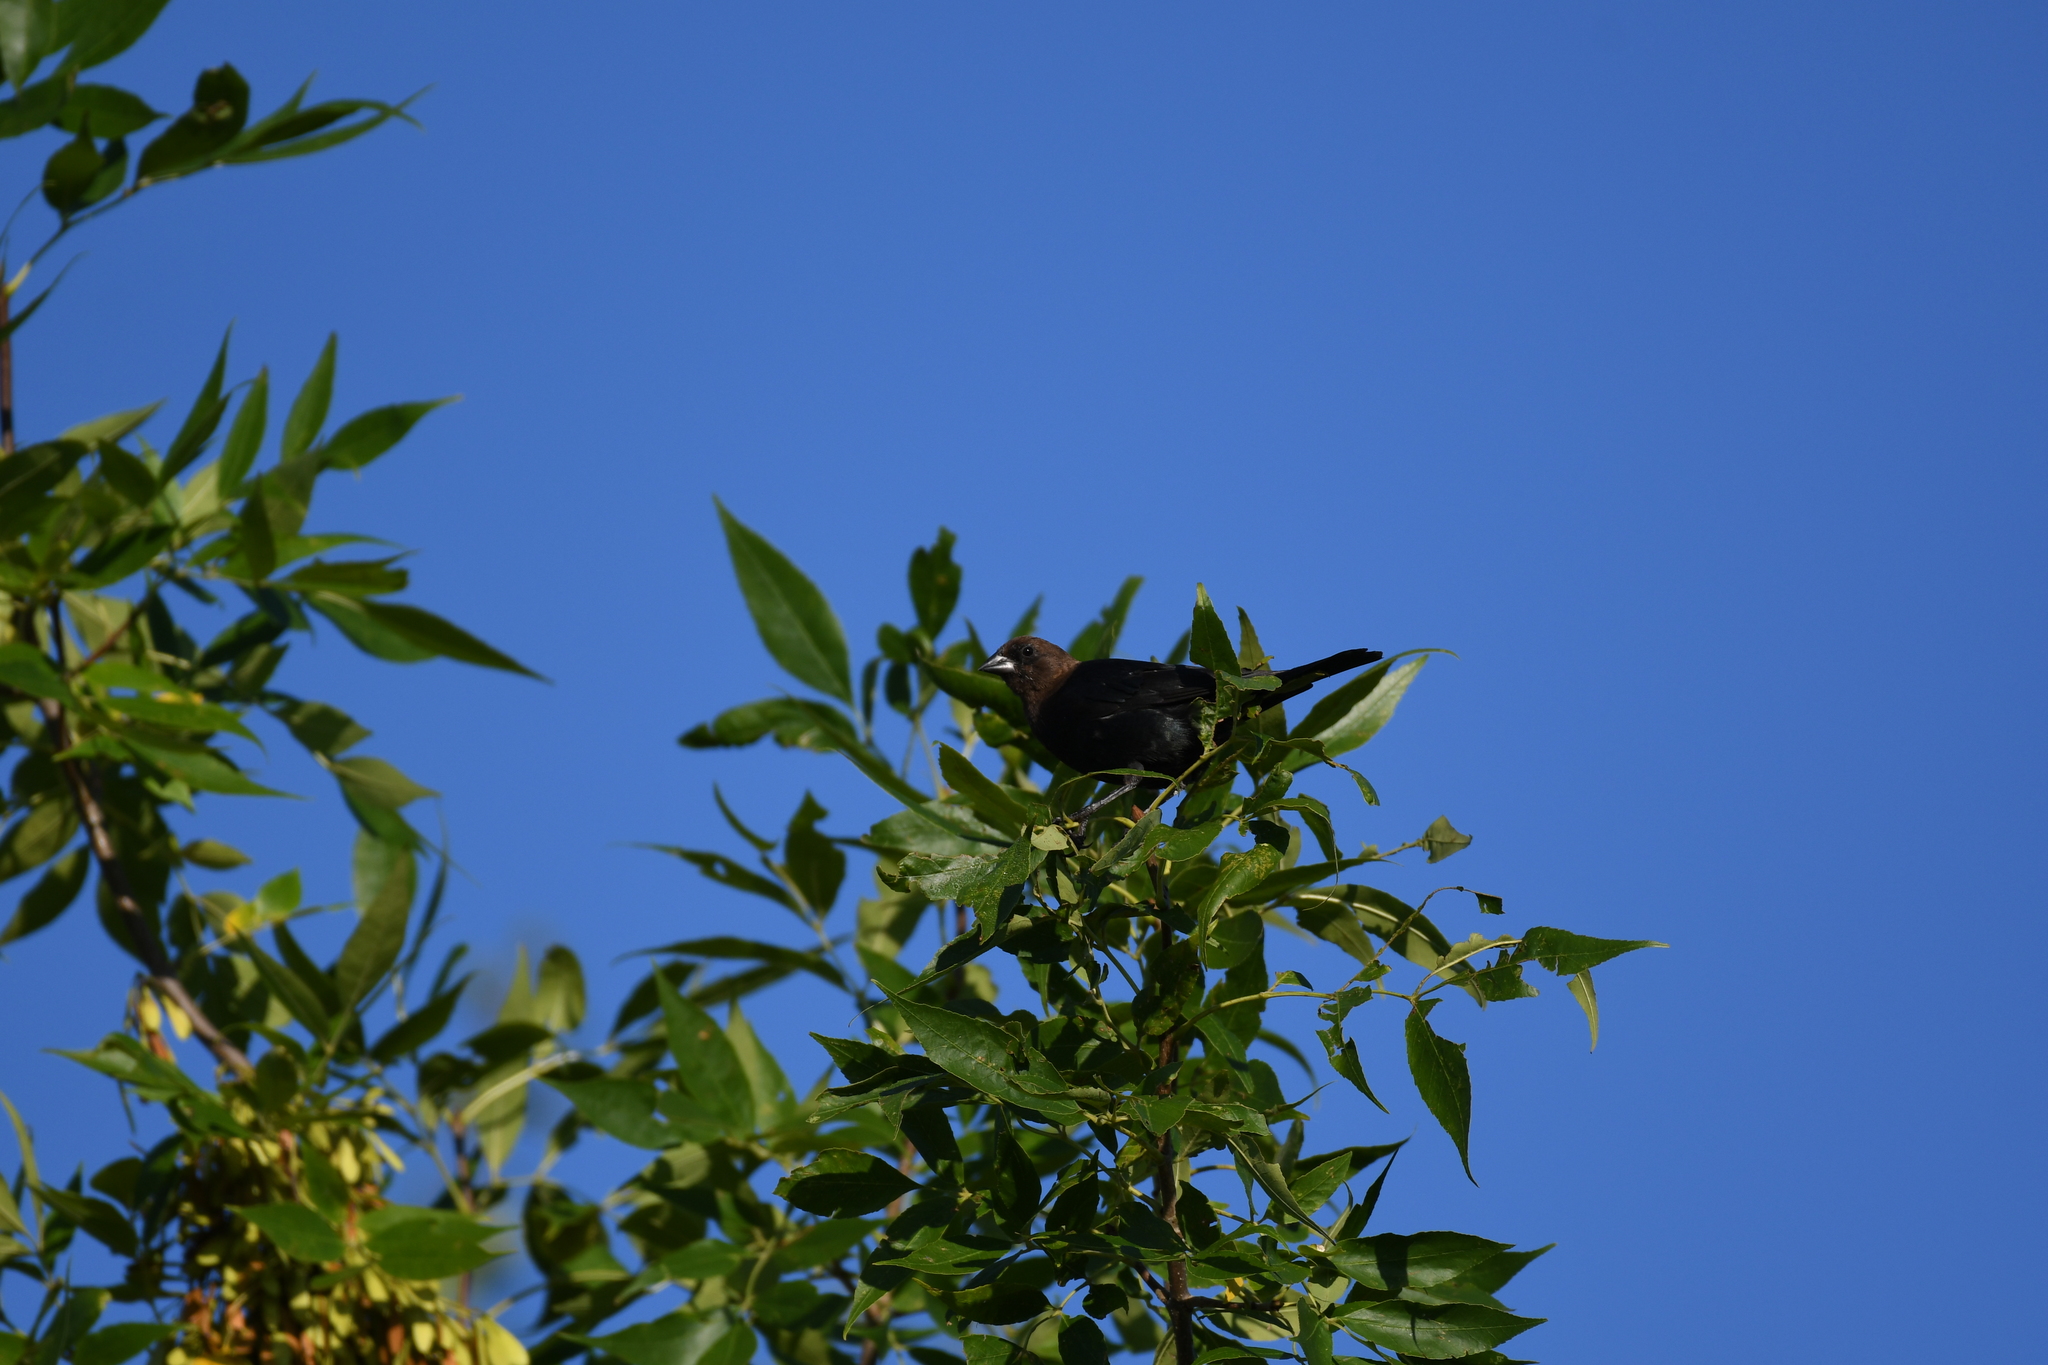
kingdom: Animalia
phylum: Chordata
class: Aves
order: Passeriformes
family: Icteridae
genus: Molothrus
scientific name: Molothrus ater
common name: Brown-headed cowbird
